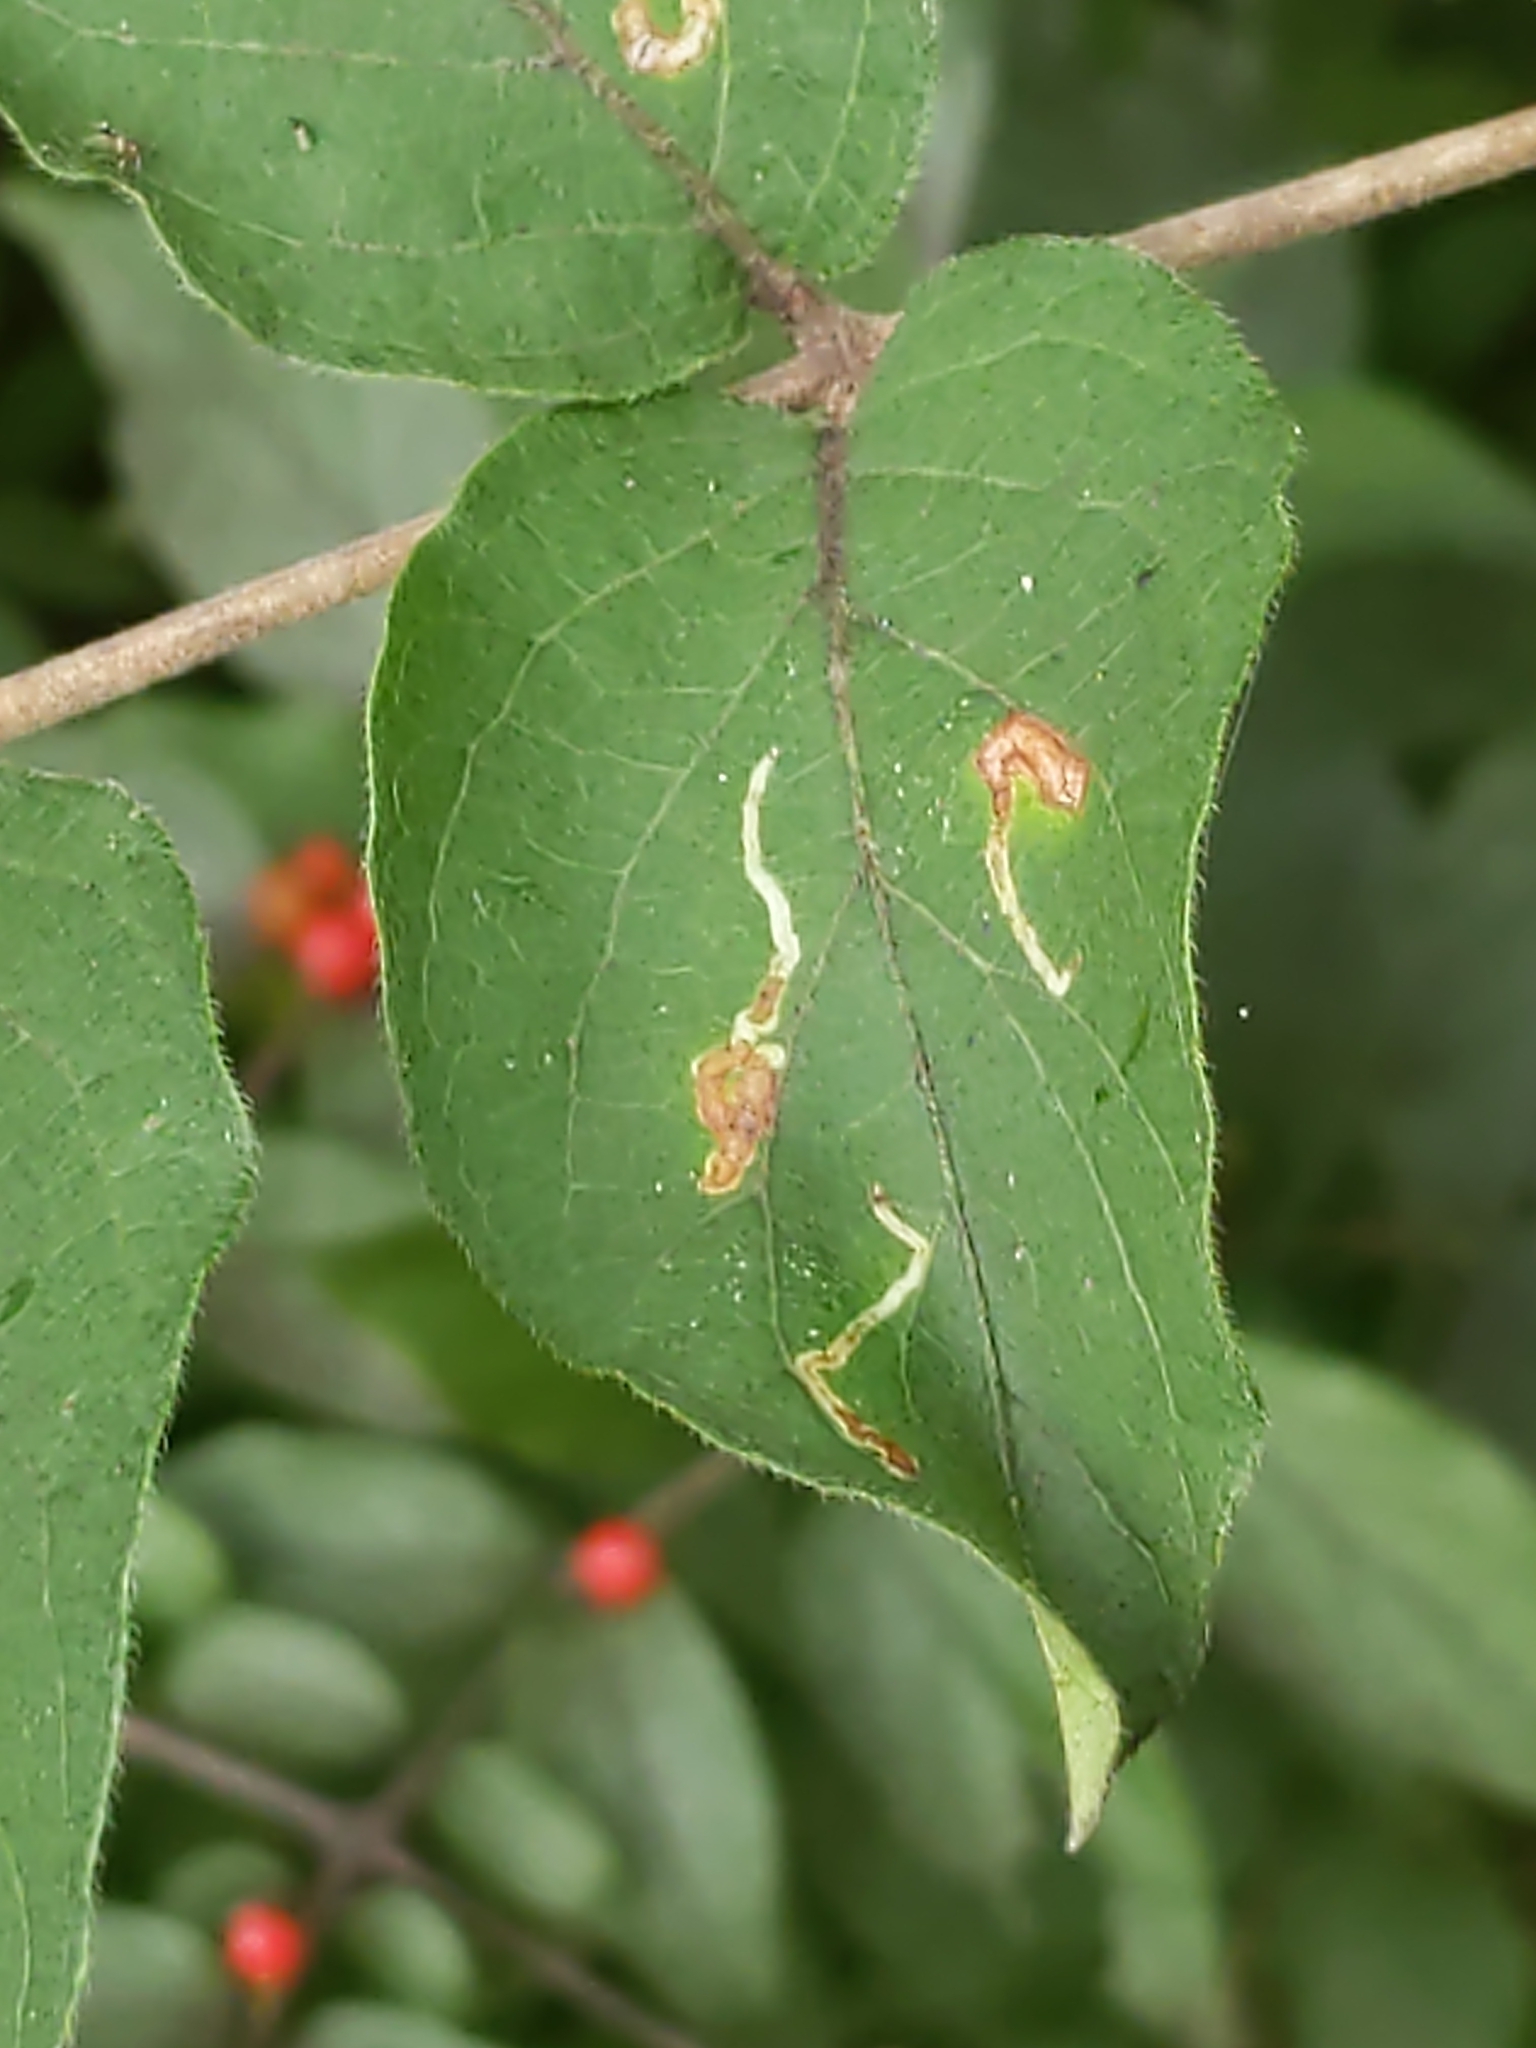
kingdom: Animalia
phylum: Arthropoda
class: Insecta
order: Diptera
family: Agromyzidae
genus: Aulagromyza
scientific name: Aulagromyza
